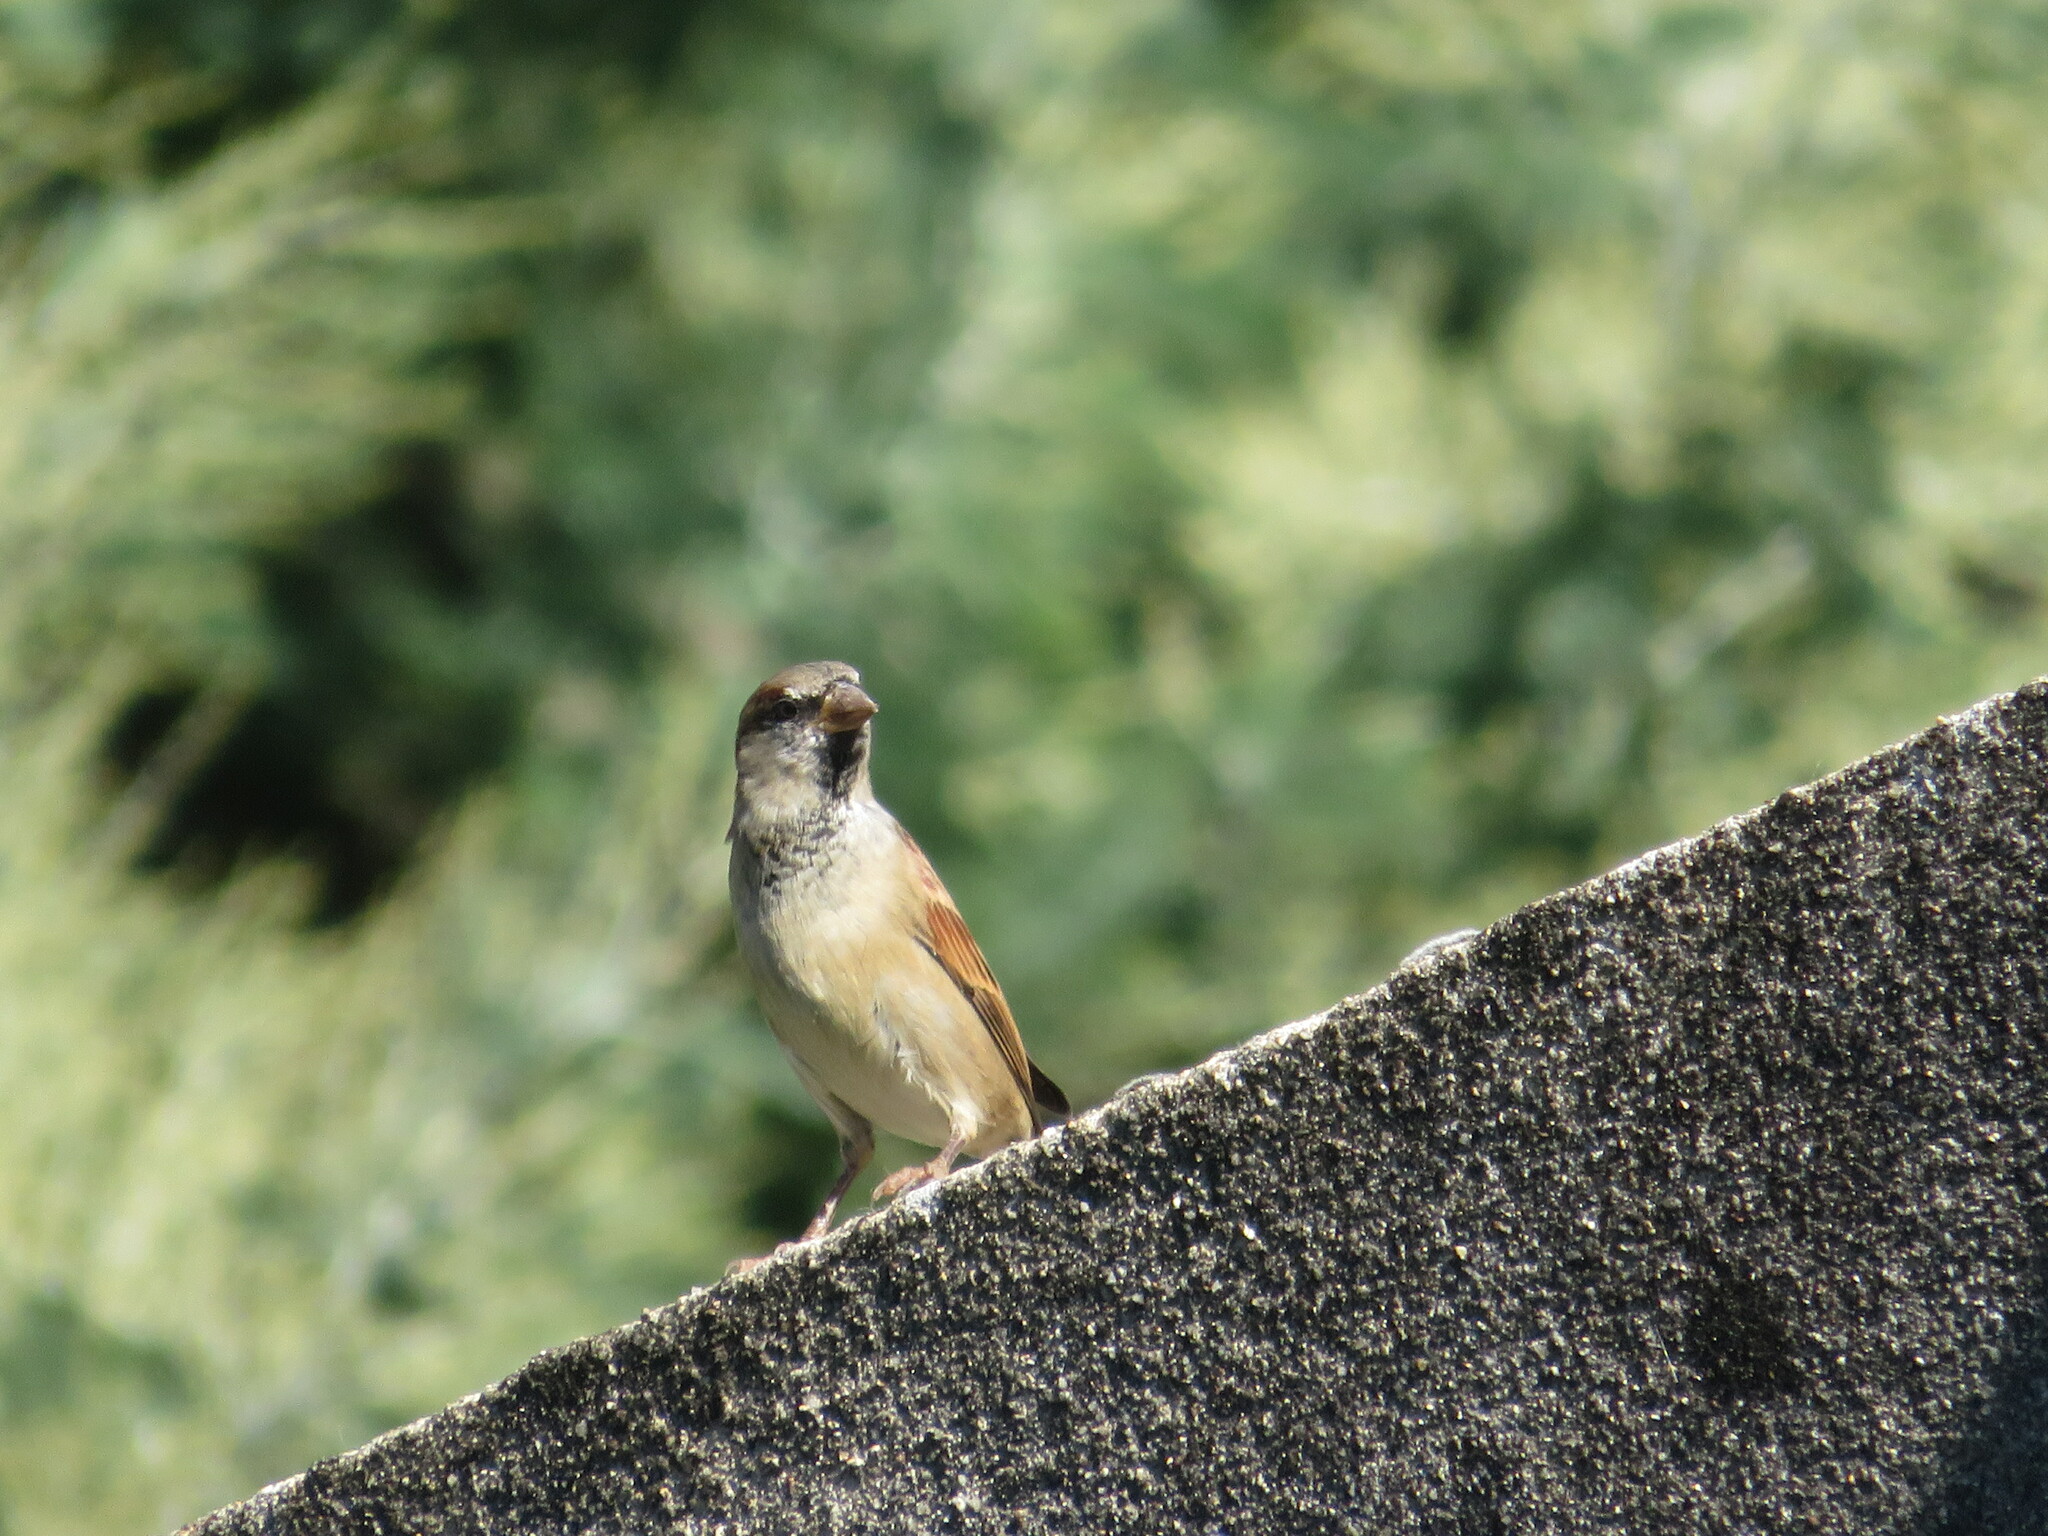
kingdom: Animalia
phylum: Chordata
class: Aves
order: Passeriformes
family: Passeridae
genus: Passer
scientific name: Passer domesticus
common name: House sparrow
